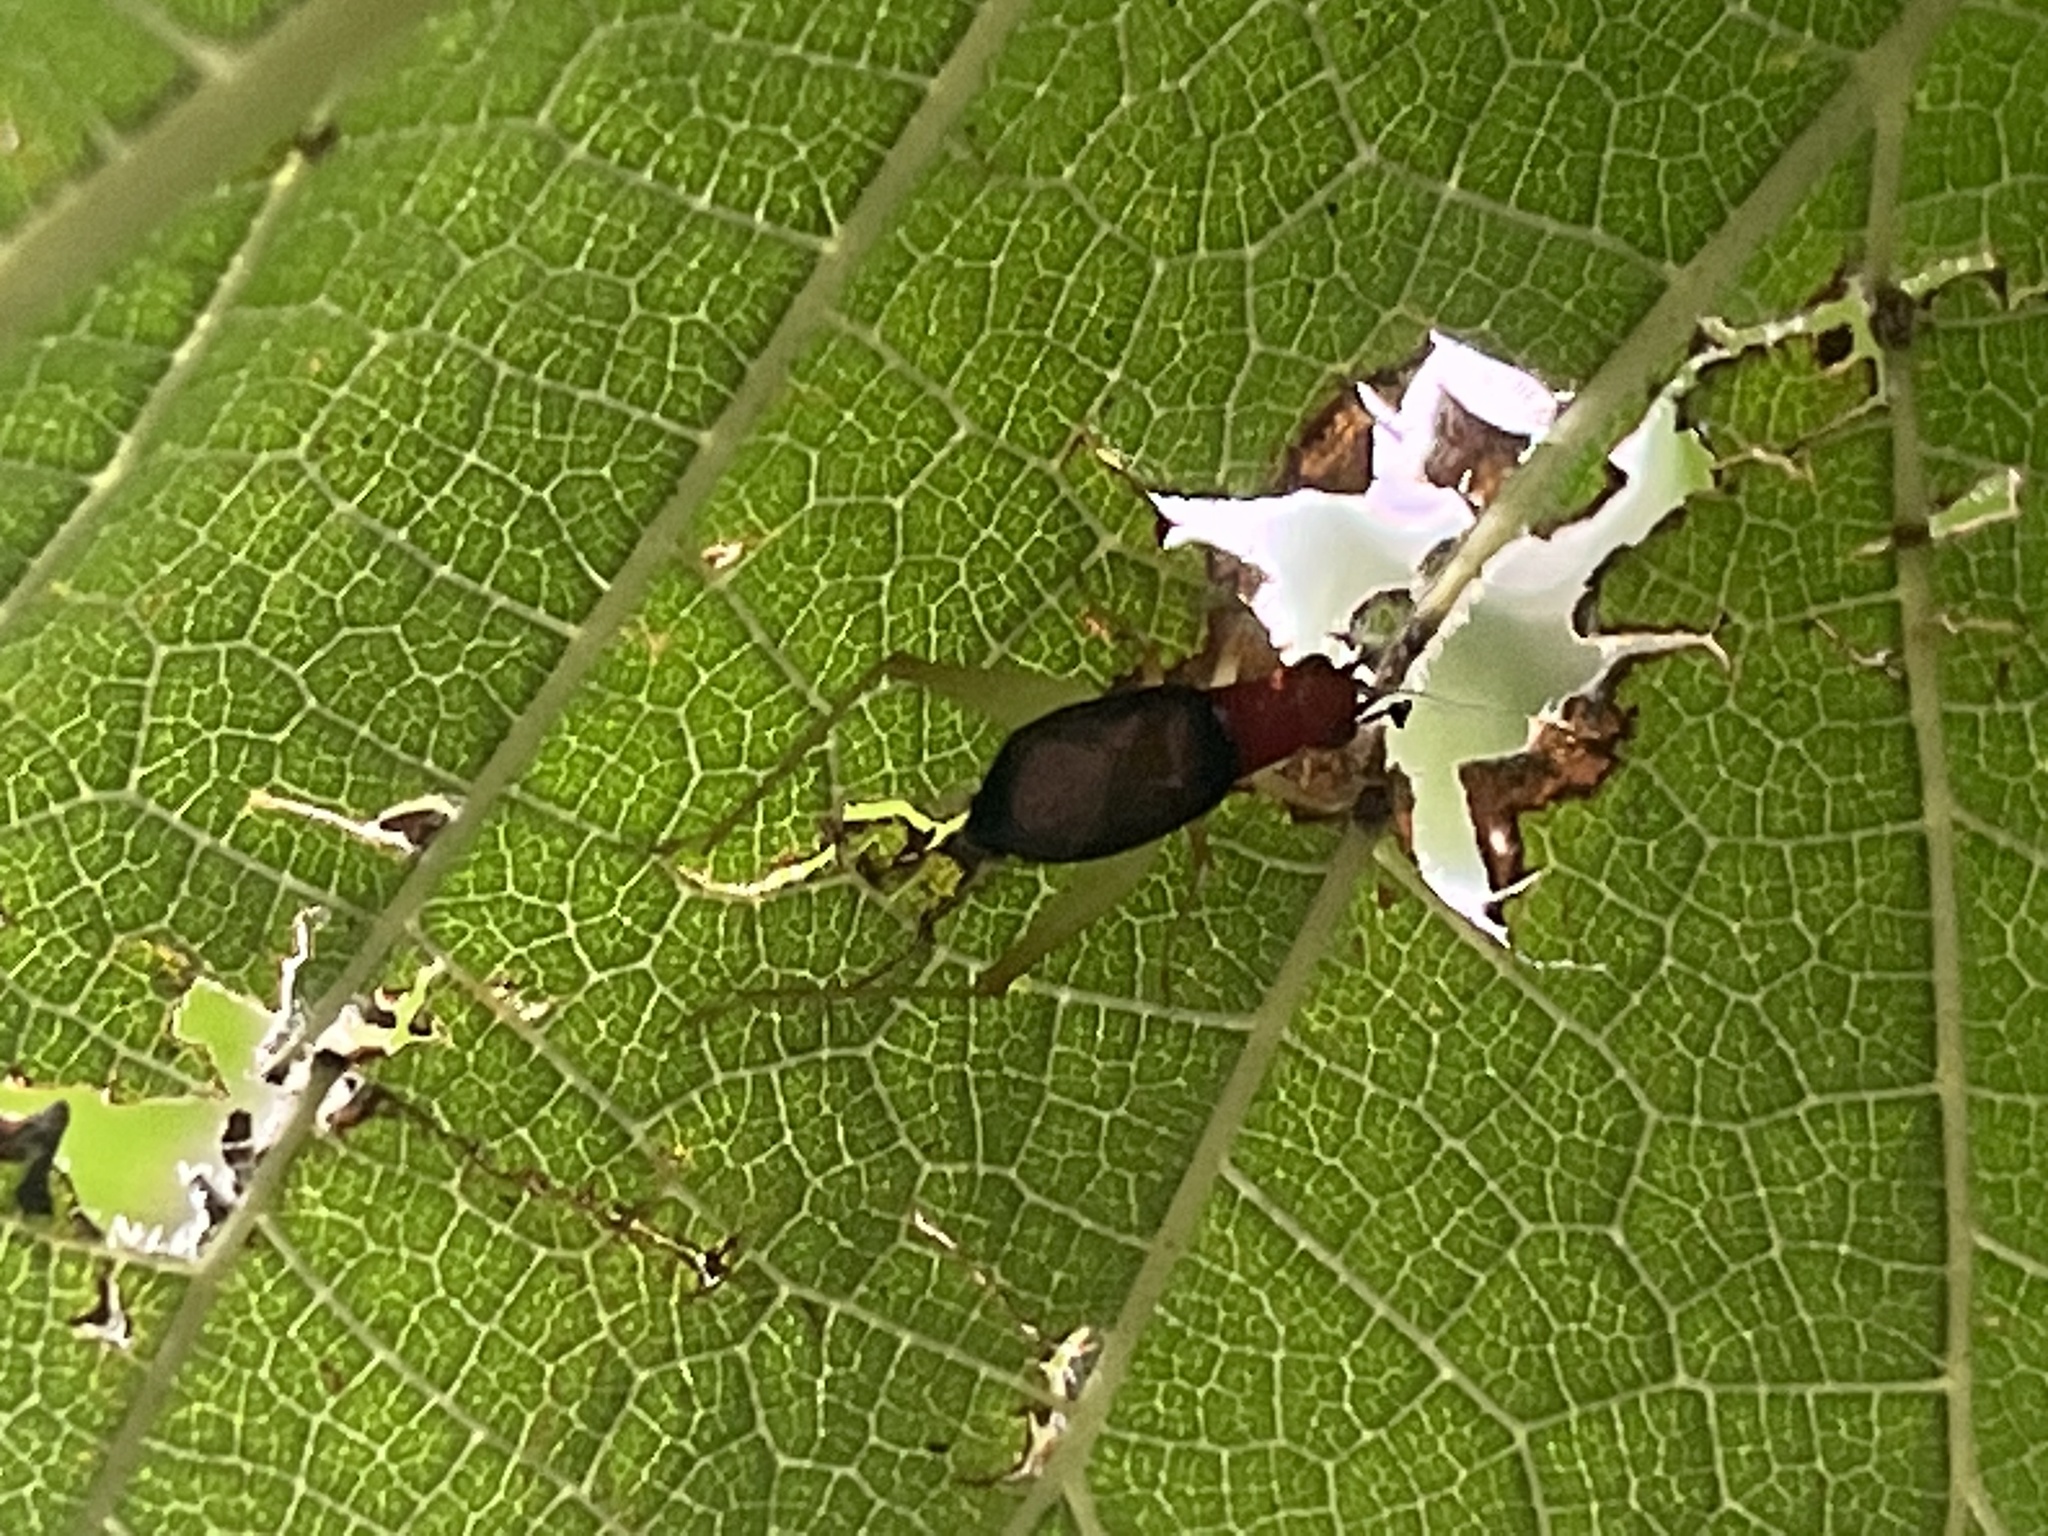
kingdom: Animalia
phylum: Arthropoda
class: Insecta
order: Orthoptera
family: Trigonidiidae
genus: Phyllopalpus
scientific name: Phyllopalpus pulchellus
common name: Handsome trig
